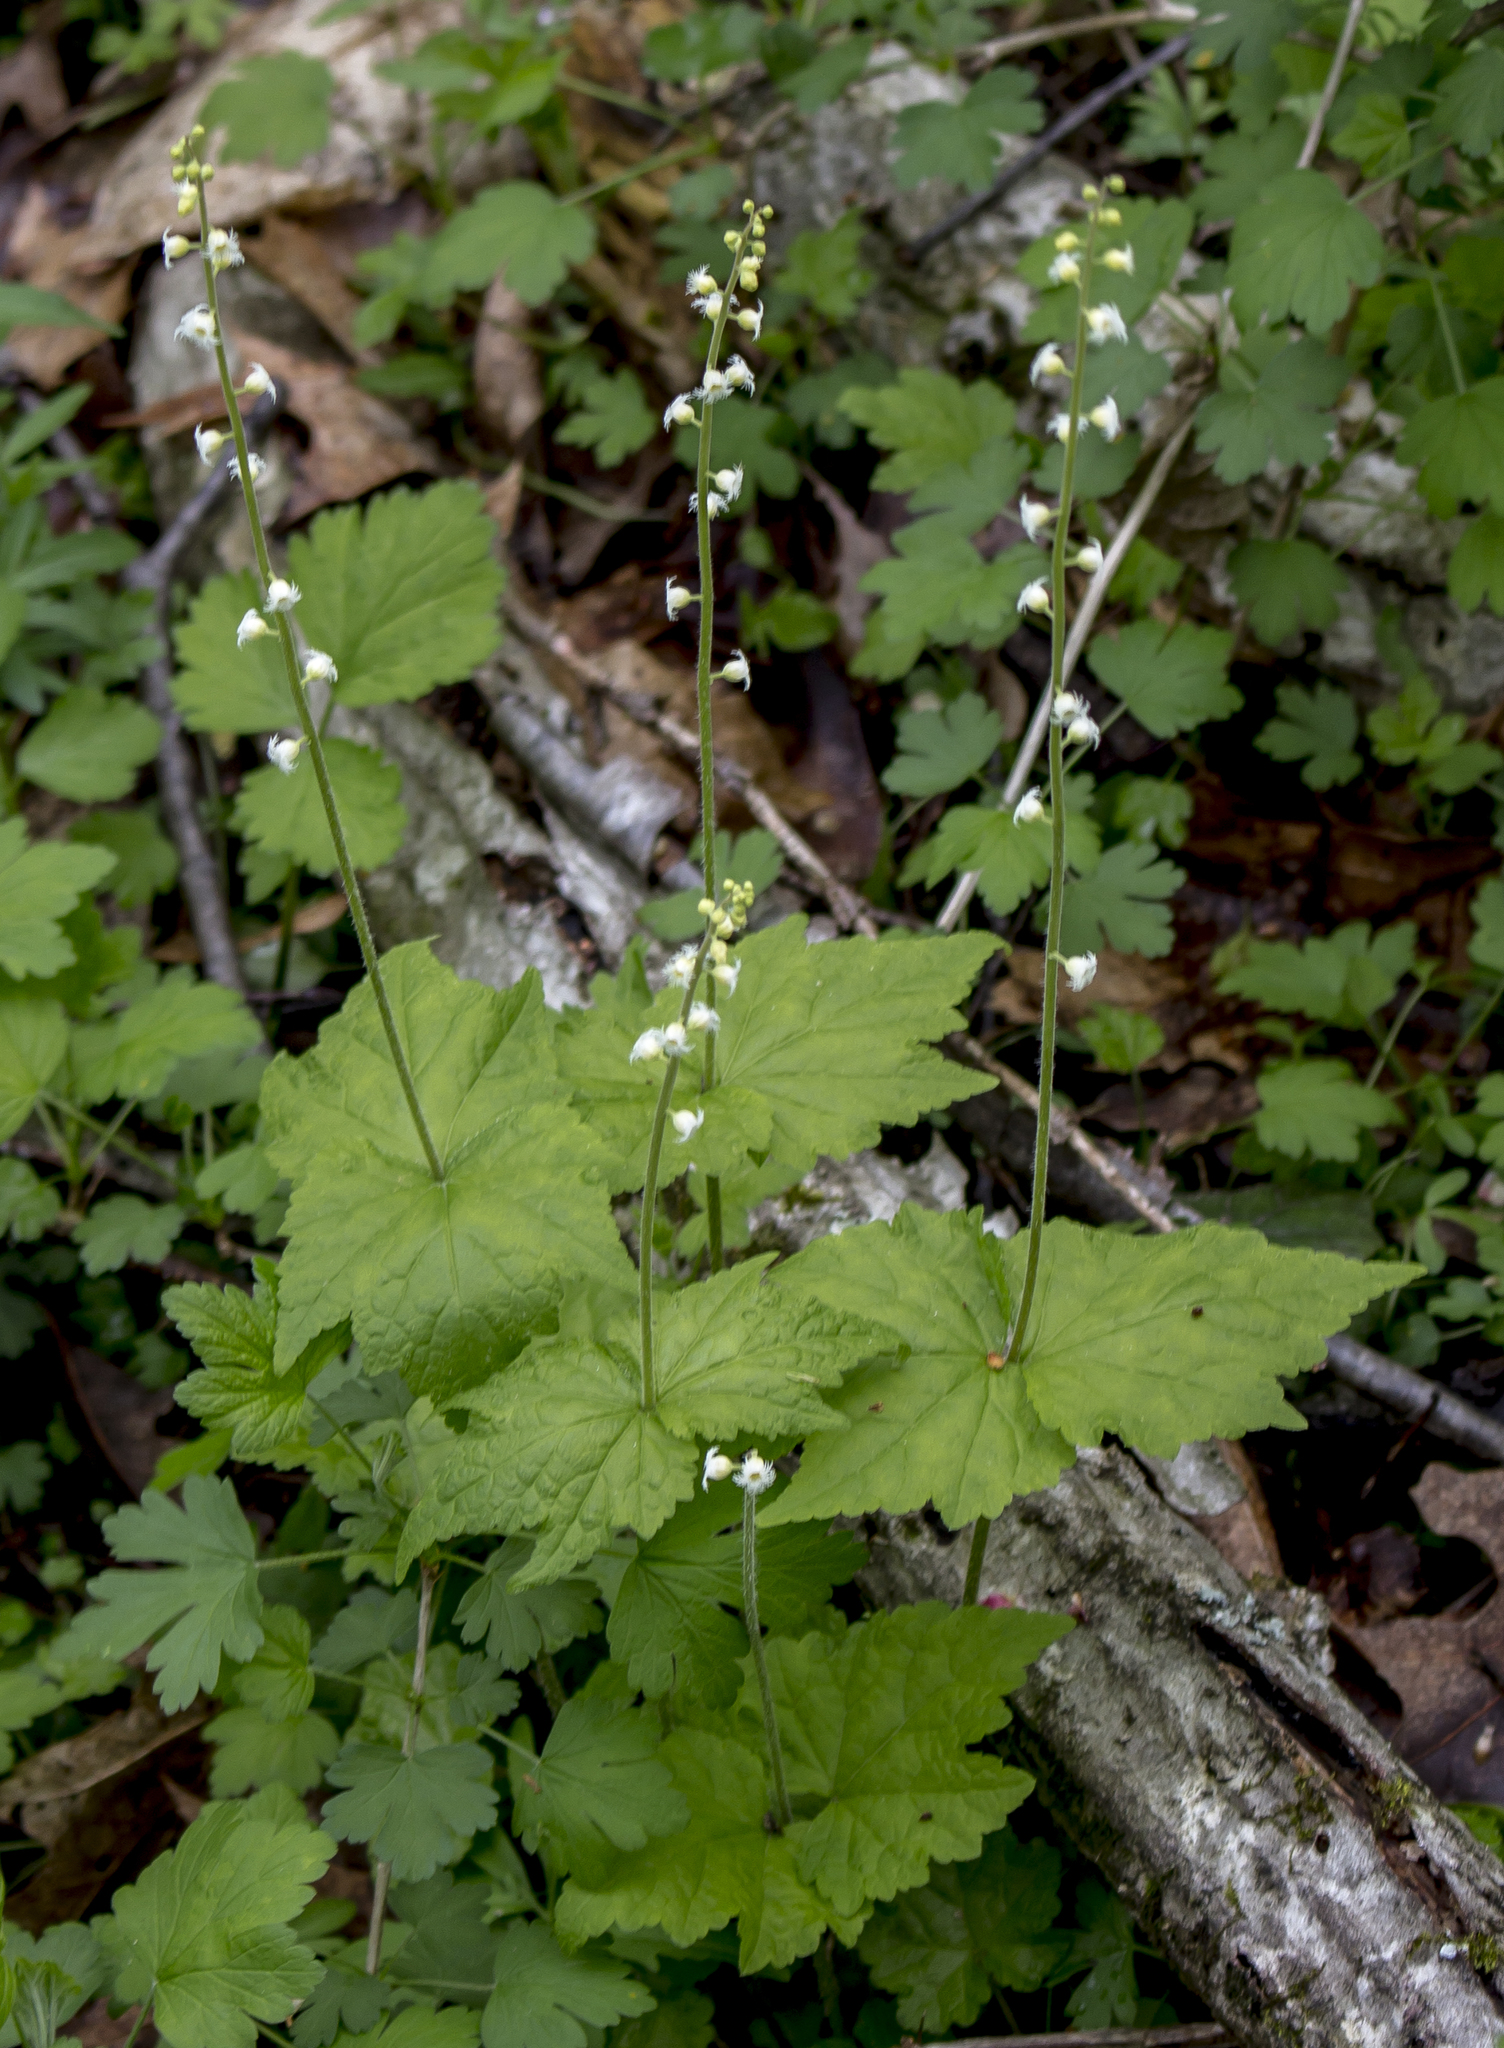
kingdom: Plantae
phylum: Tracheophyta
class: Magnoliopsida
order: Saxifragales
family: Saxifragaceae
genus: Mitella
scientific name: Mitella diphylla
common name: Coolwort
